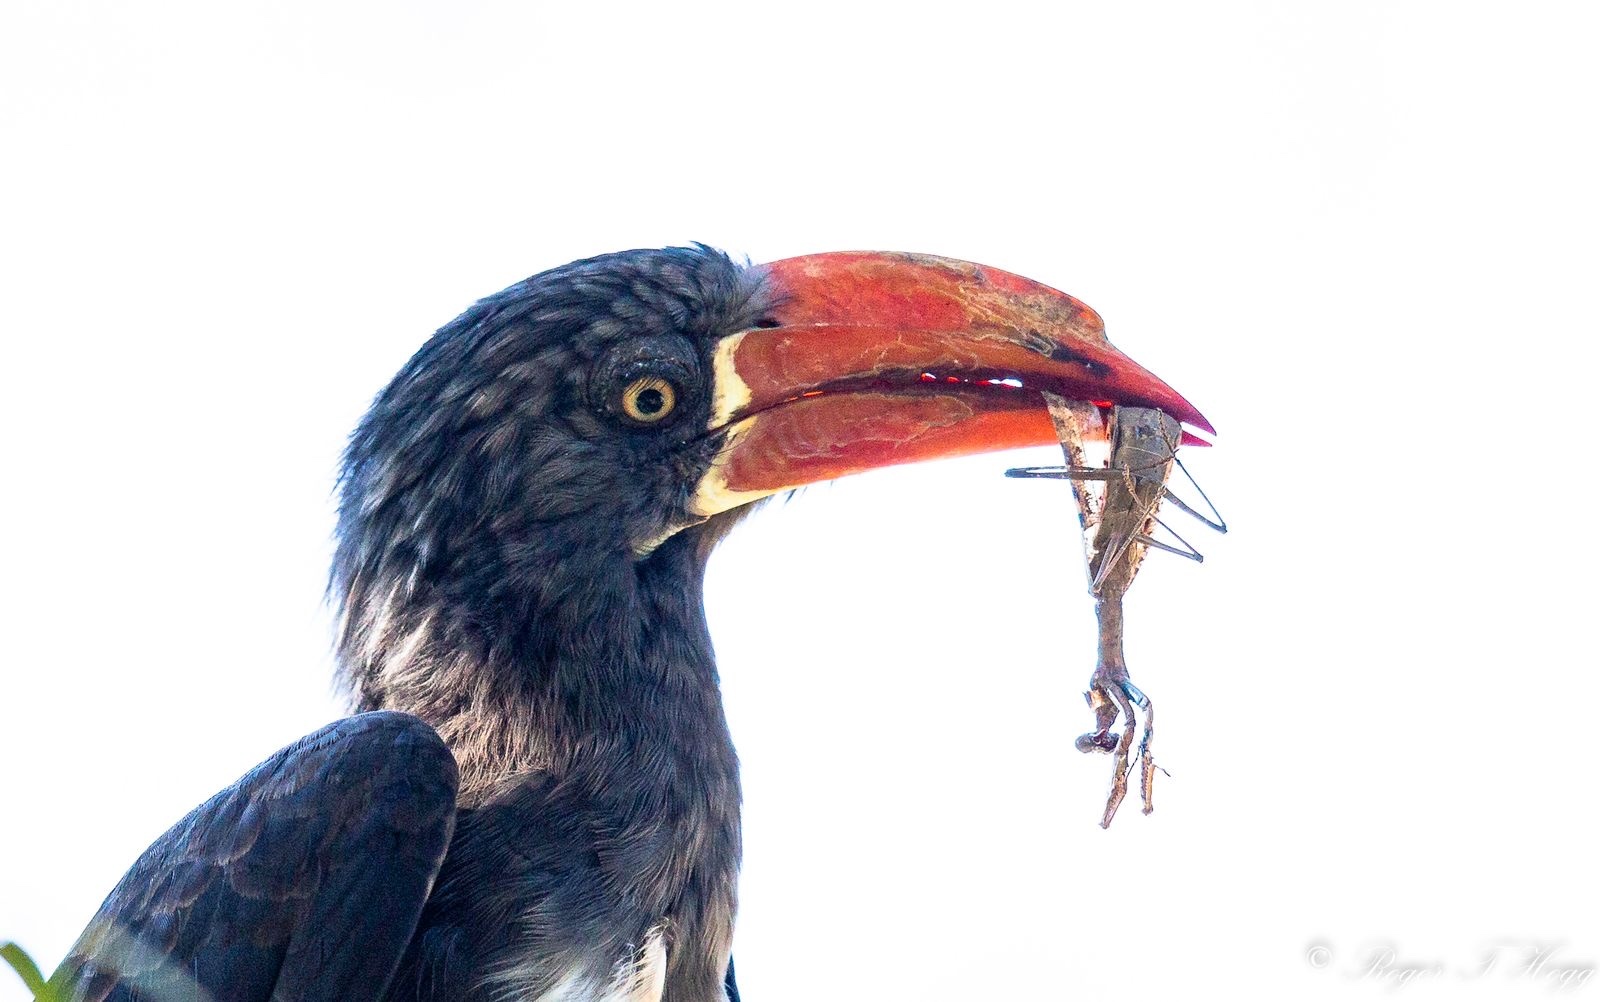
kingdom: Animalia
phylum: Chordata
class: Aves
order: Bucerotiformes
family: Bucerotidae
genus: Lophoceros
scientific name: Lophoceros alboterminatus
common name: Crowned hornbill
